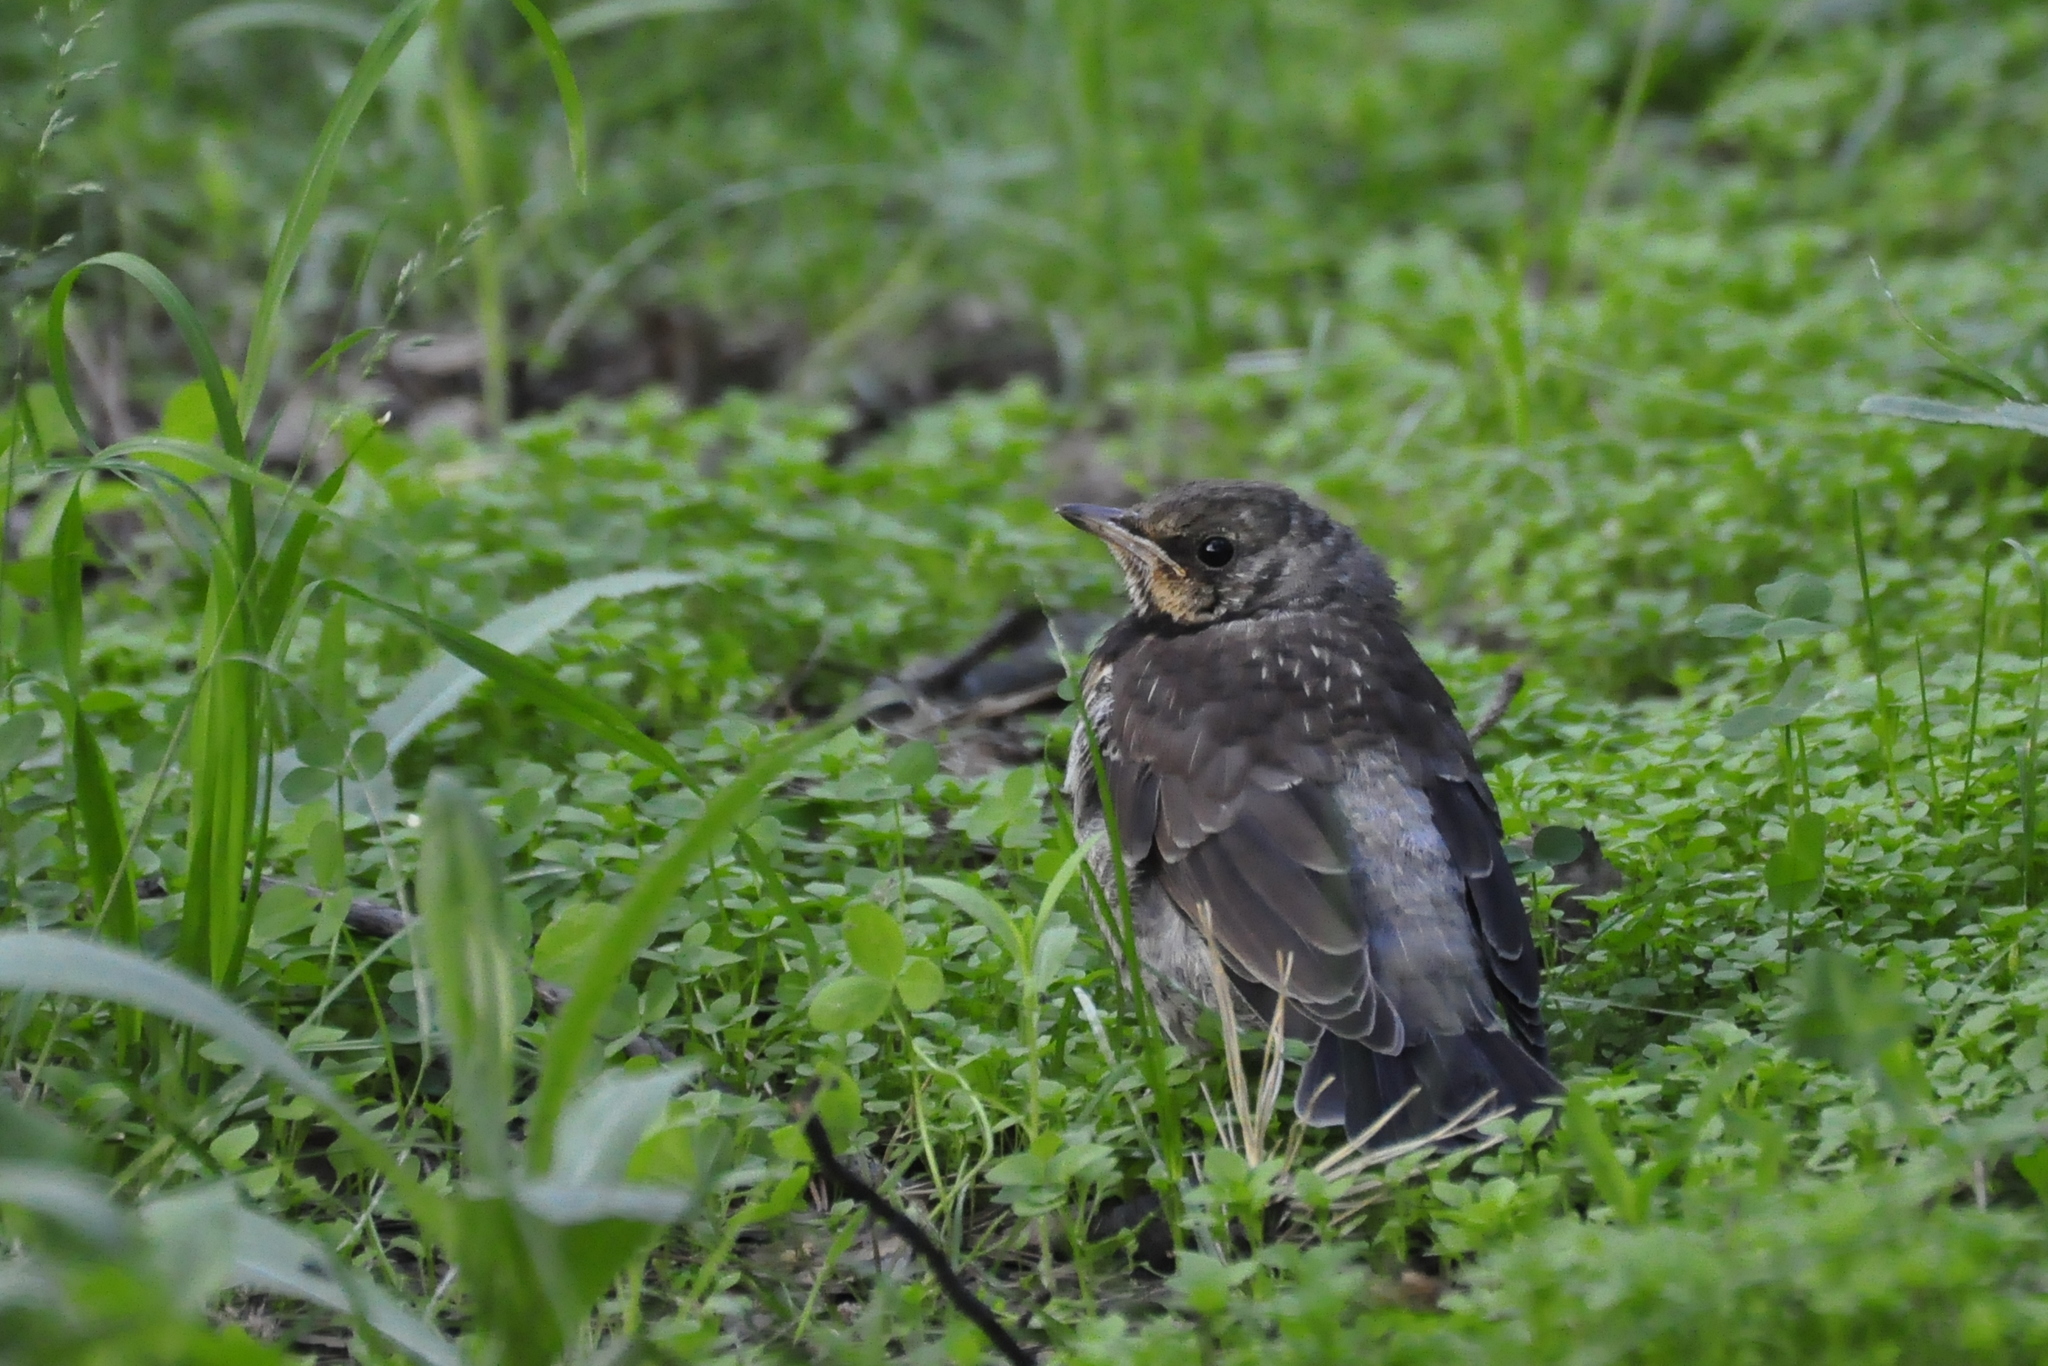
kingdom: Animalia
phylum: Chordata
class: Aves
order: Passeriformes
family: Turdidae
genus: Turdus
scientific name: Turdus pilaris
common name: Fieldfare
